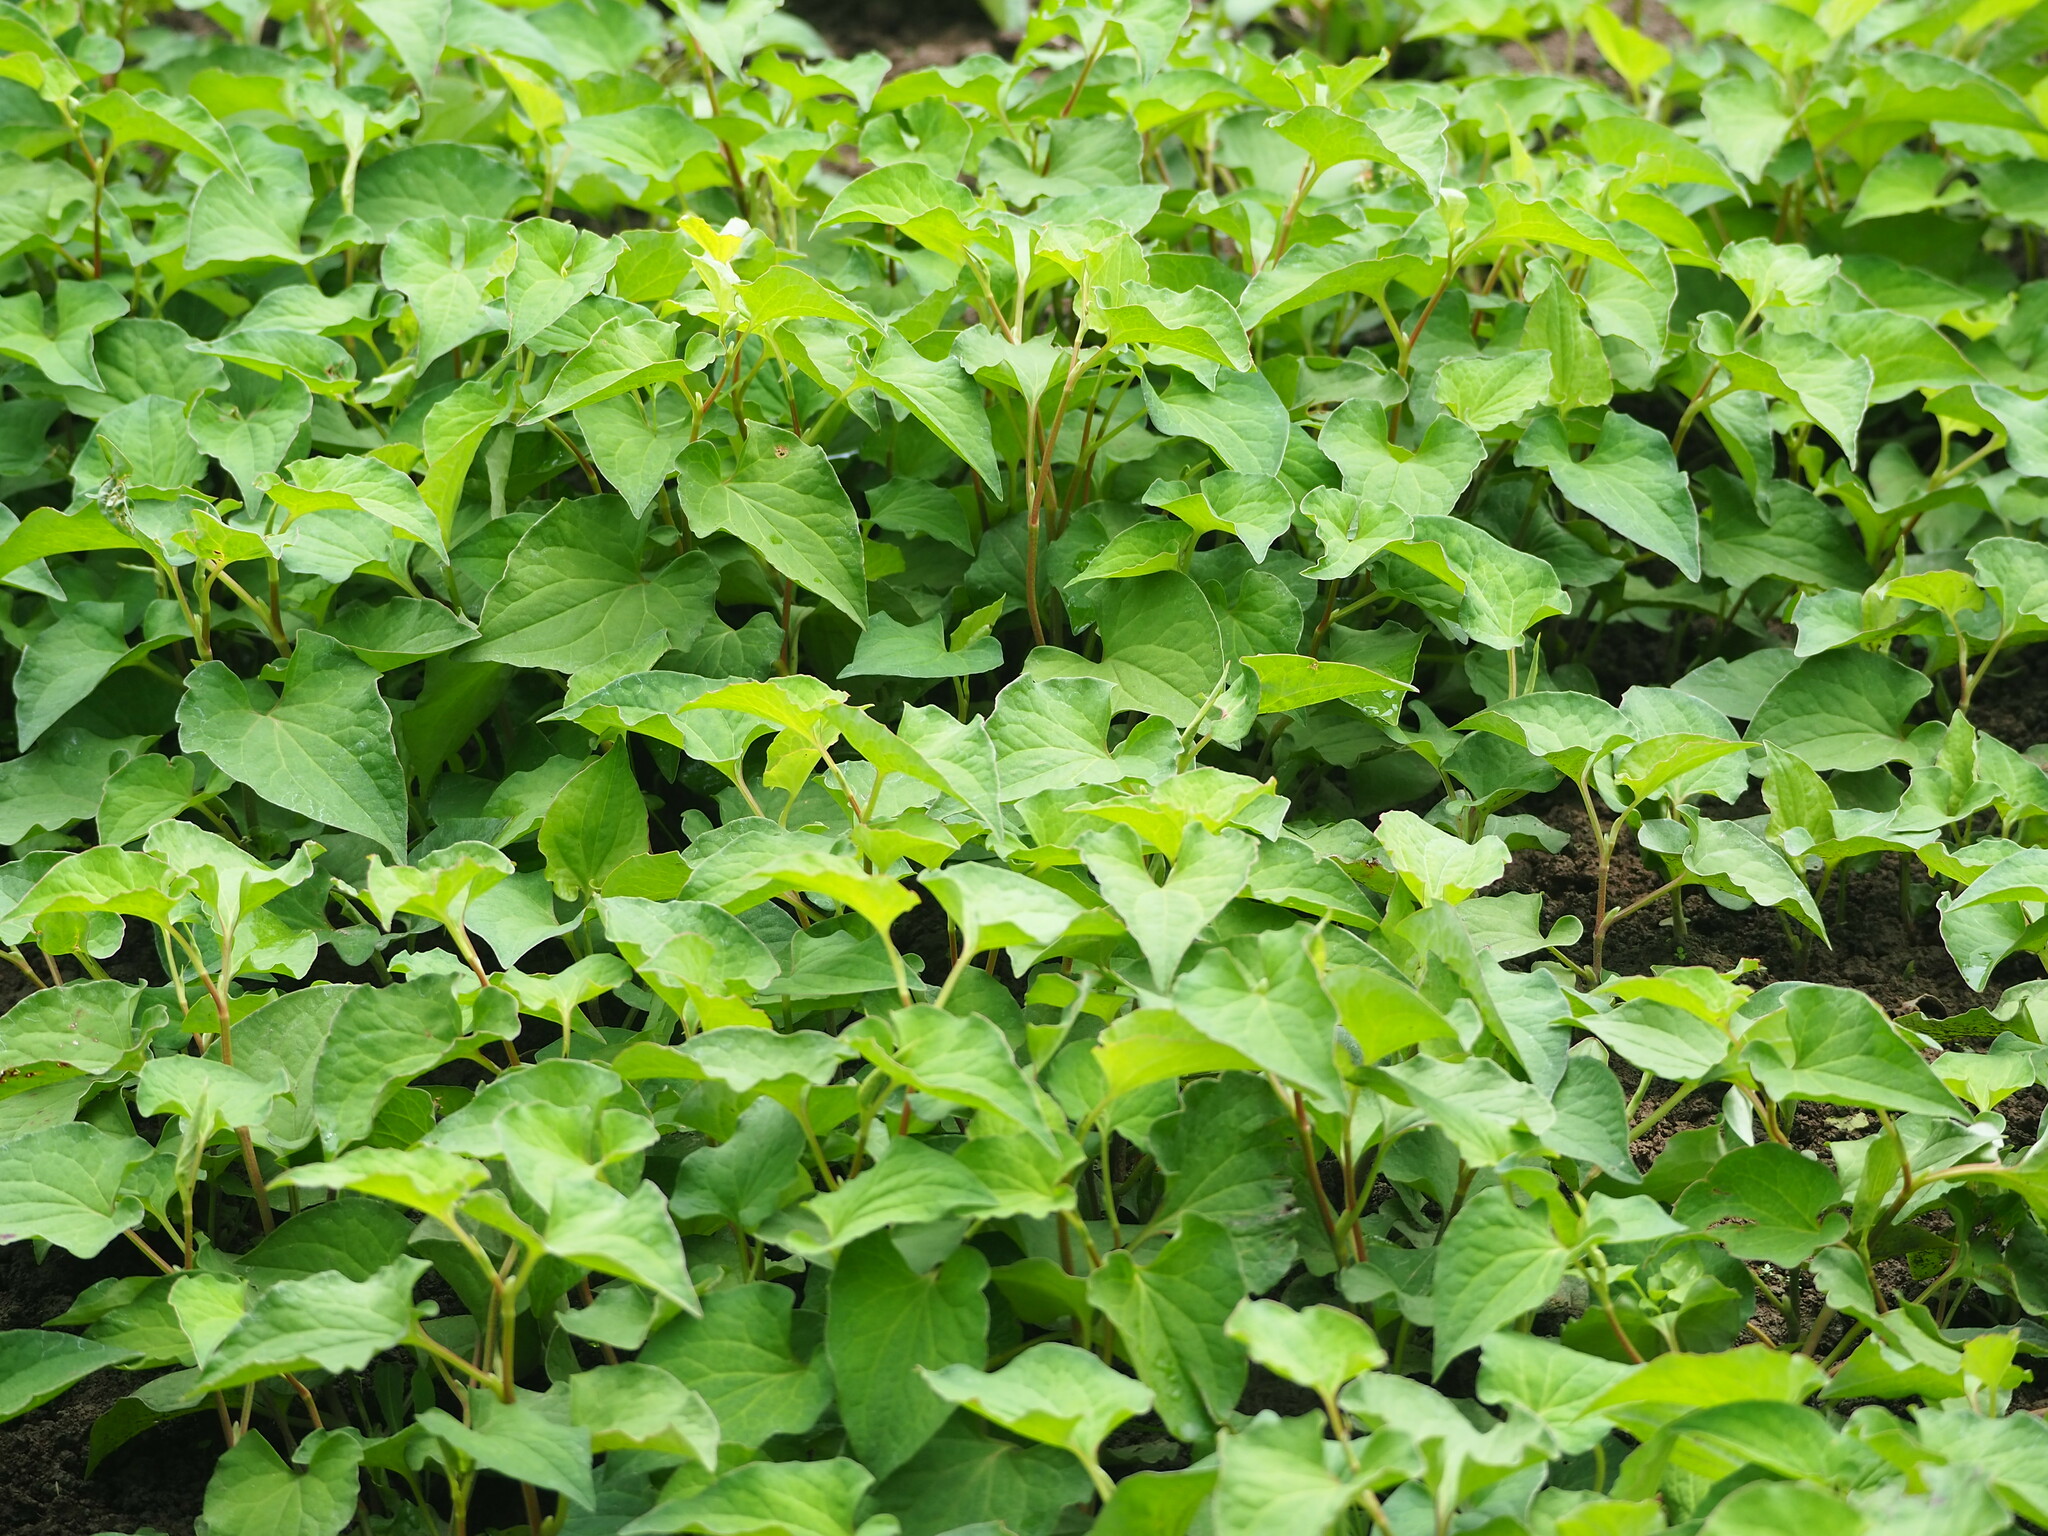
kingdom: Plantae
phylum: Tracheophyta
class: Magnoliopsida
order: Piperales
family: Saururaceae
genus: Houttuynia
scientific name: Houttuynia cordata
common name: Chameleon
